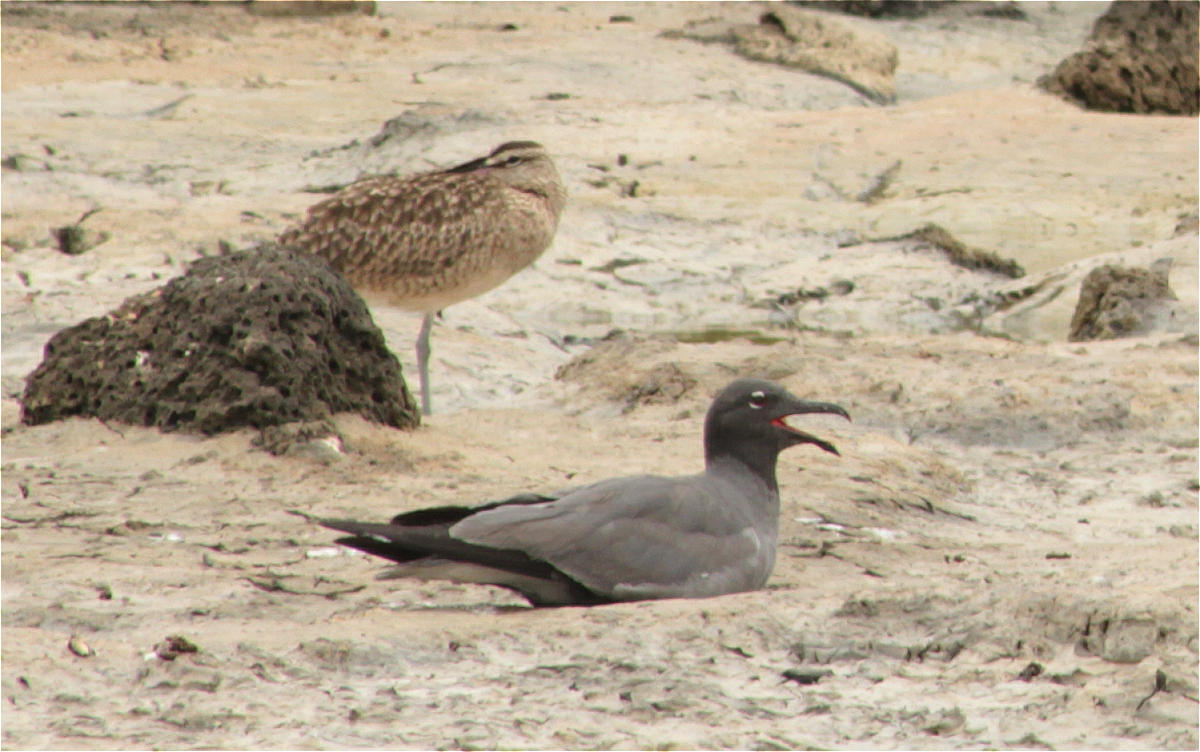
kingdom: Animalia
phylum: Chordata
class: Aves
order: Charadriiformes
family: Laridae
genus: Leucophaeus
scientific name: Leucophaeus fuliginosus
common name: Lava gull
